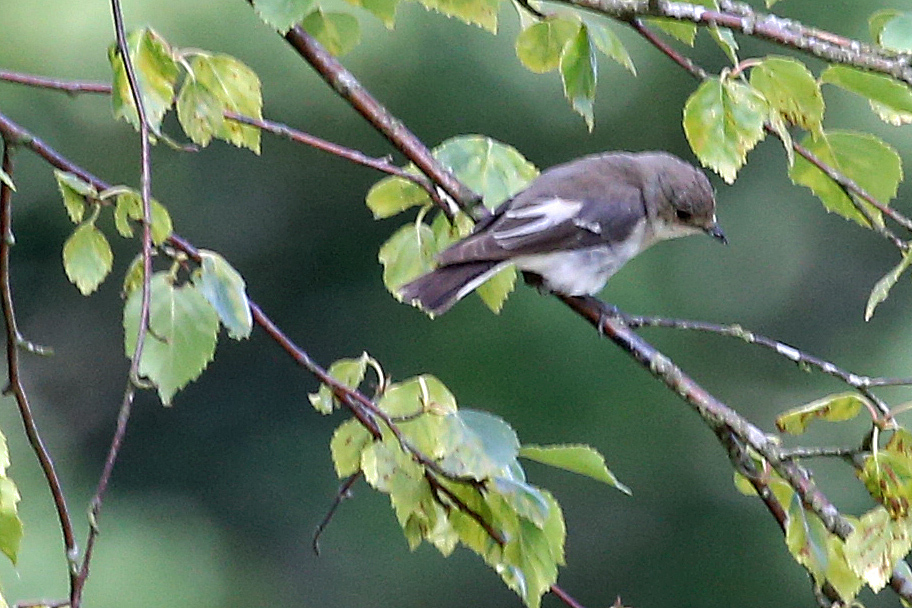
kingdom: Animalia
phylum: Chordata
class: Aves
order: Passeriformes
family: Muscicapidae
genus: Ficedula
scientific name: Ficedula hypoleuca
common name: European pied flycatcher
